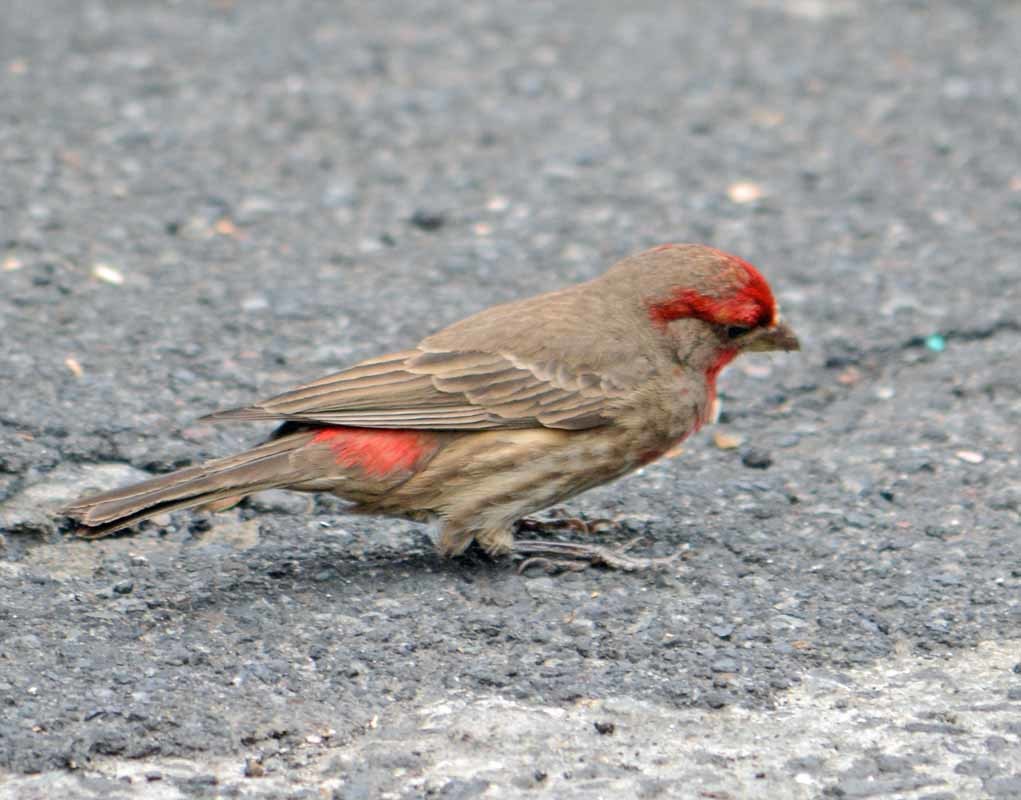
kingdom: Animalia
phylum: Chordata
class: Aves
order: Passeriformes
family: Fringillidae
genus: Haemorhous
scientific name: Haemorhous mexicanus
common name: House finch
